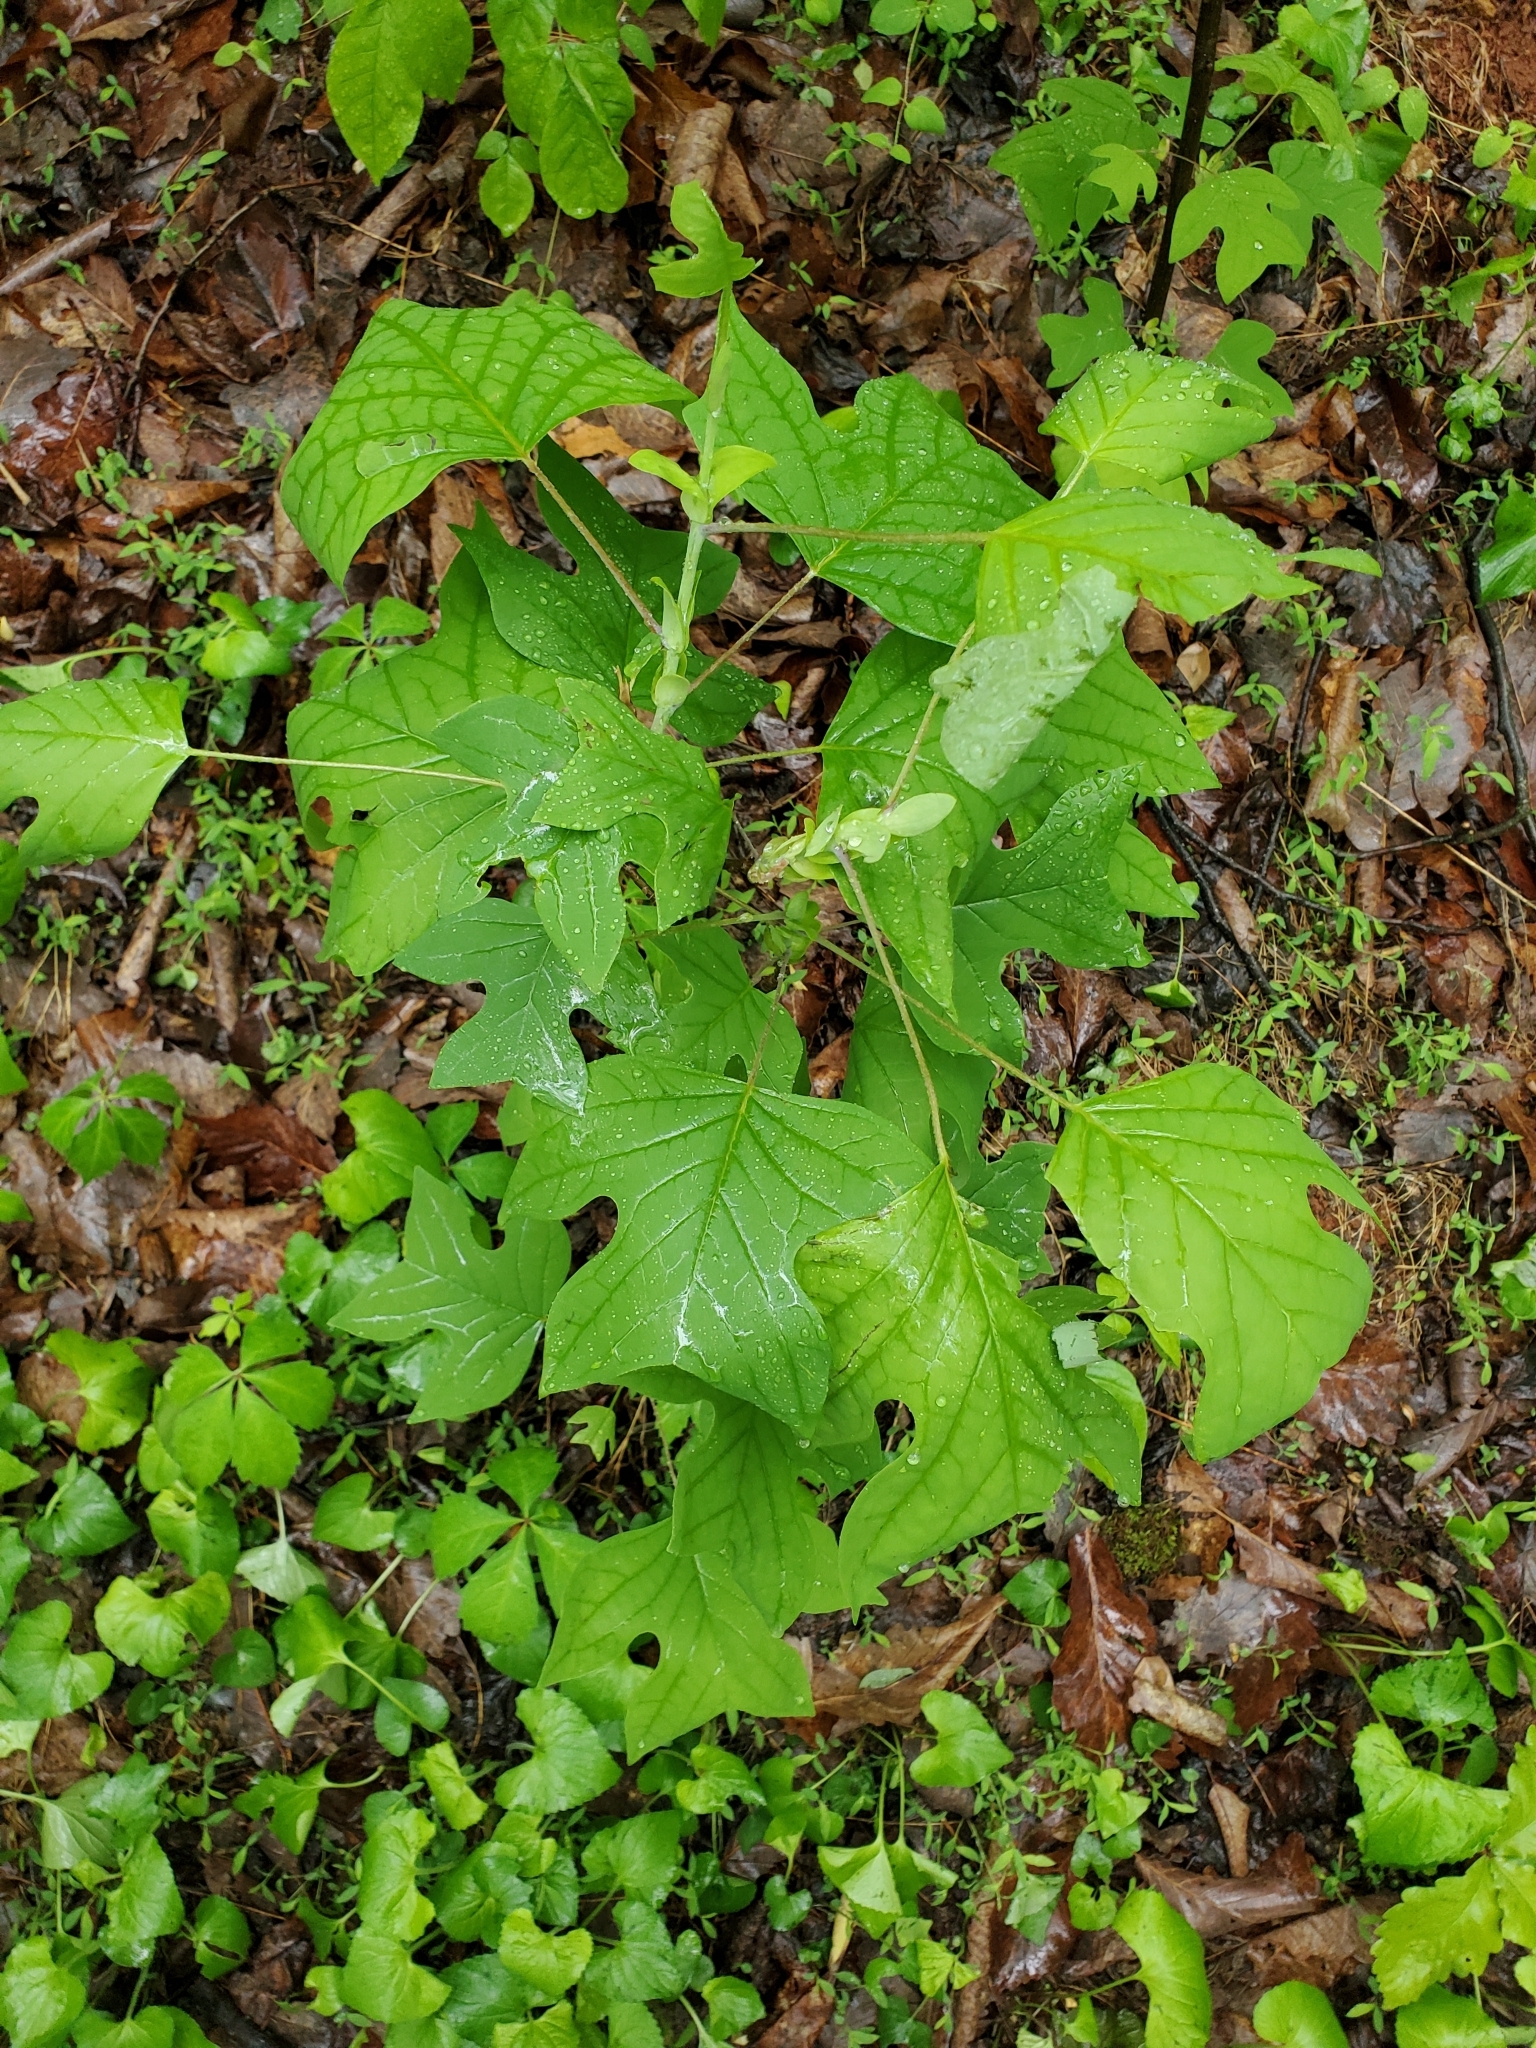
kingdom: Plantae
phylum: Tracheophyta
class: Magnoliopsida
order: Magnoliales
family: Magnoliaceae
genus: Liriodendron
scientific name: Liriodendron tulipifera
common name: Tulip tree
